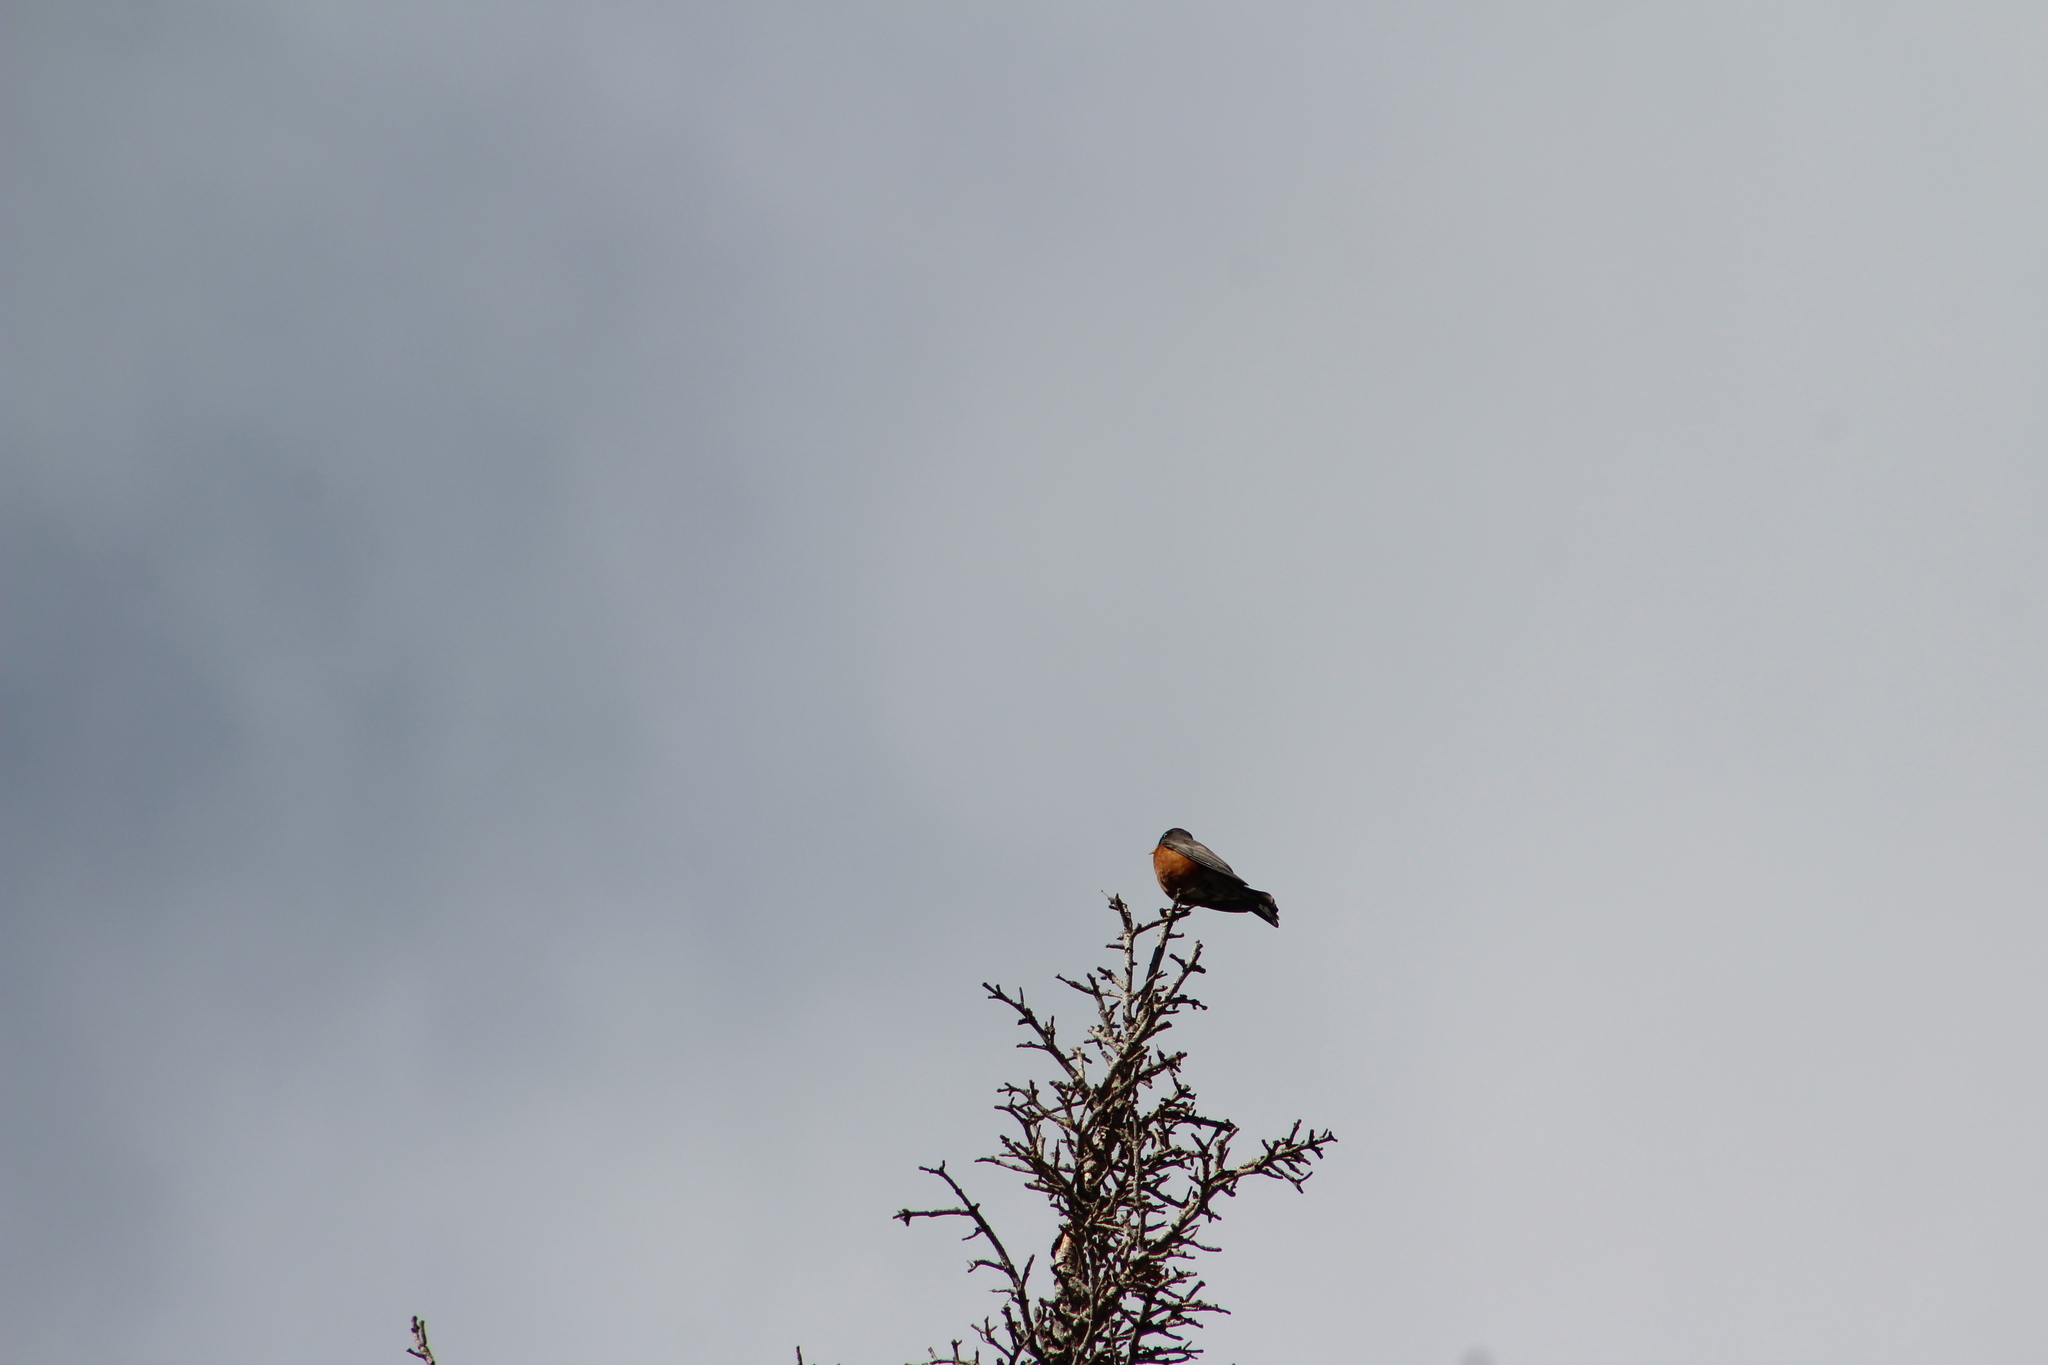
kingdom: Animalia
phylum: Chordata
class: Aves
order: Passeriformes
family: Turdidae
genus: Turdus
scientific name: Turdus migratorius
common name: American robin
